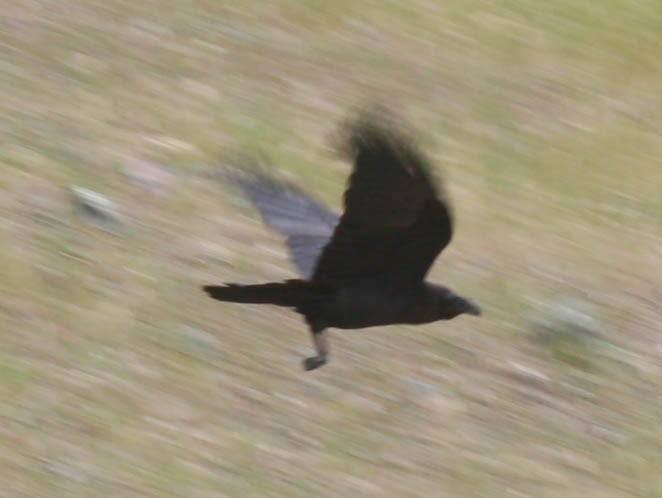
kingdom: Animalia
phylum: Chordata
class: Aves
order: Passeriformes
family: Corvidae
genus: Corvus
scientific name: Corvus corax
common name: Common raven
